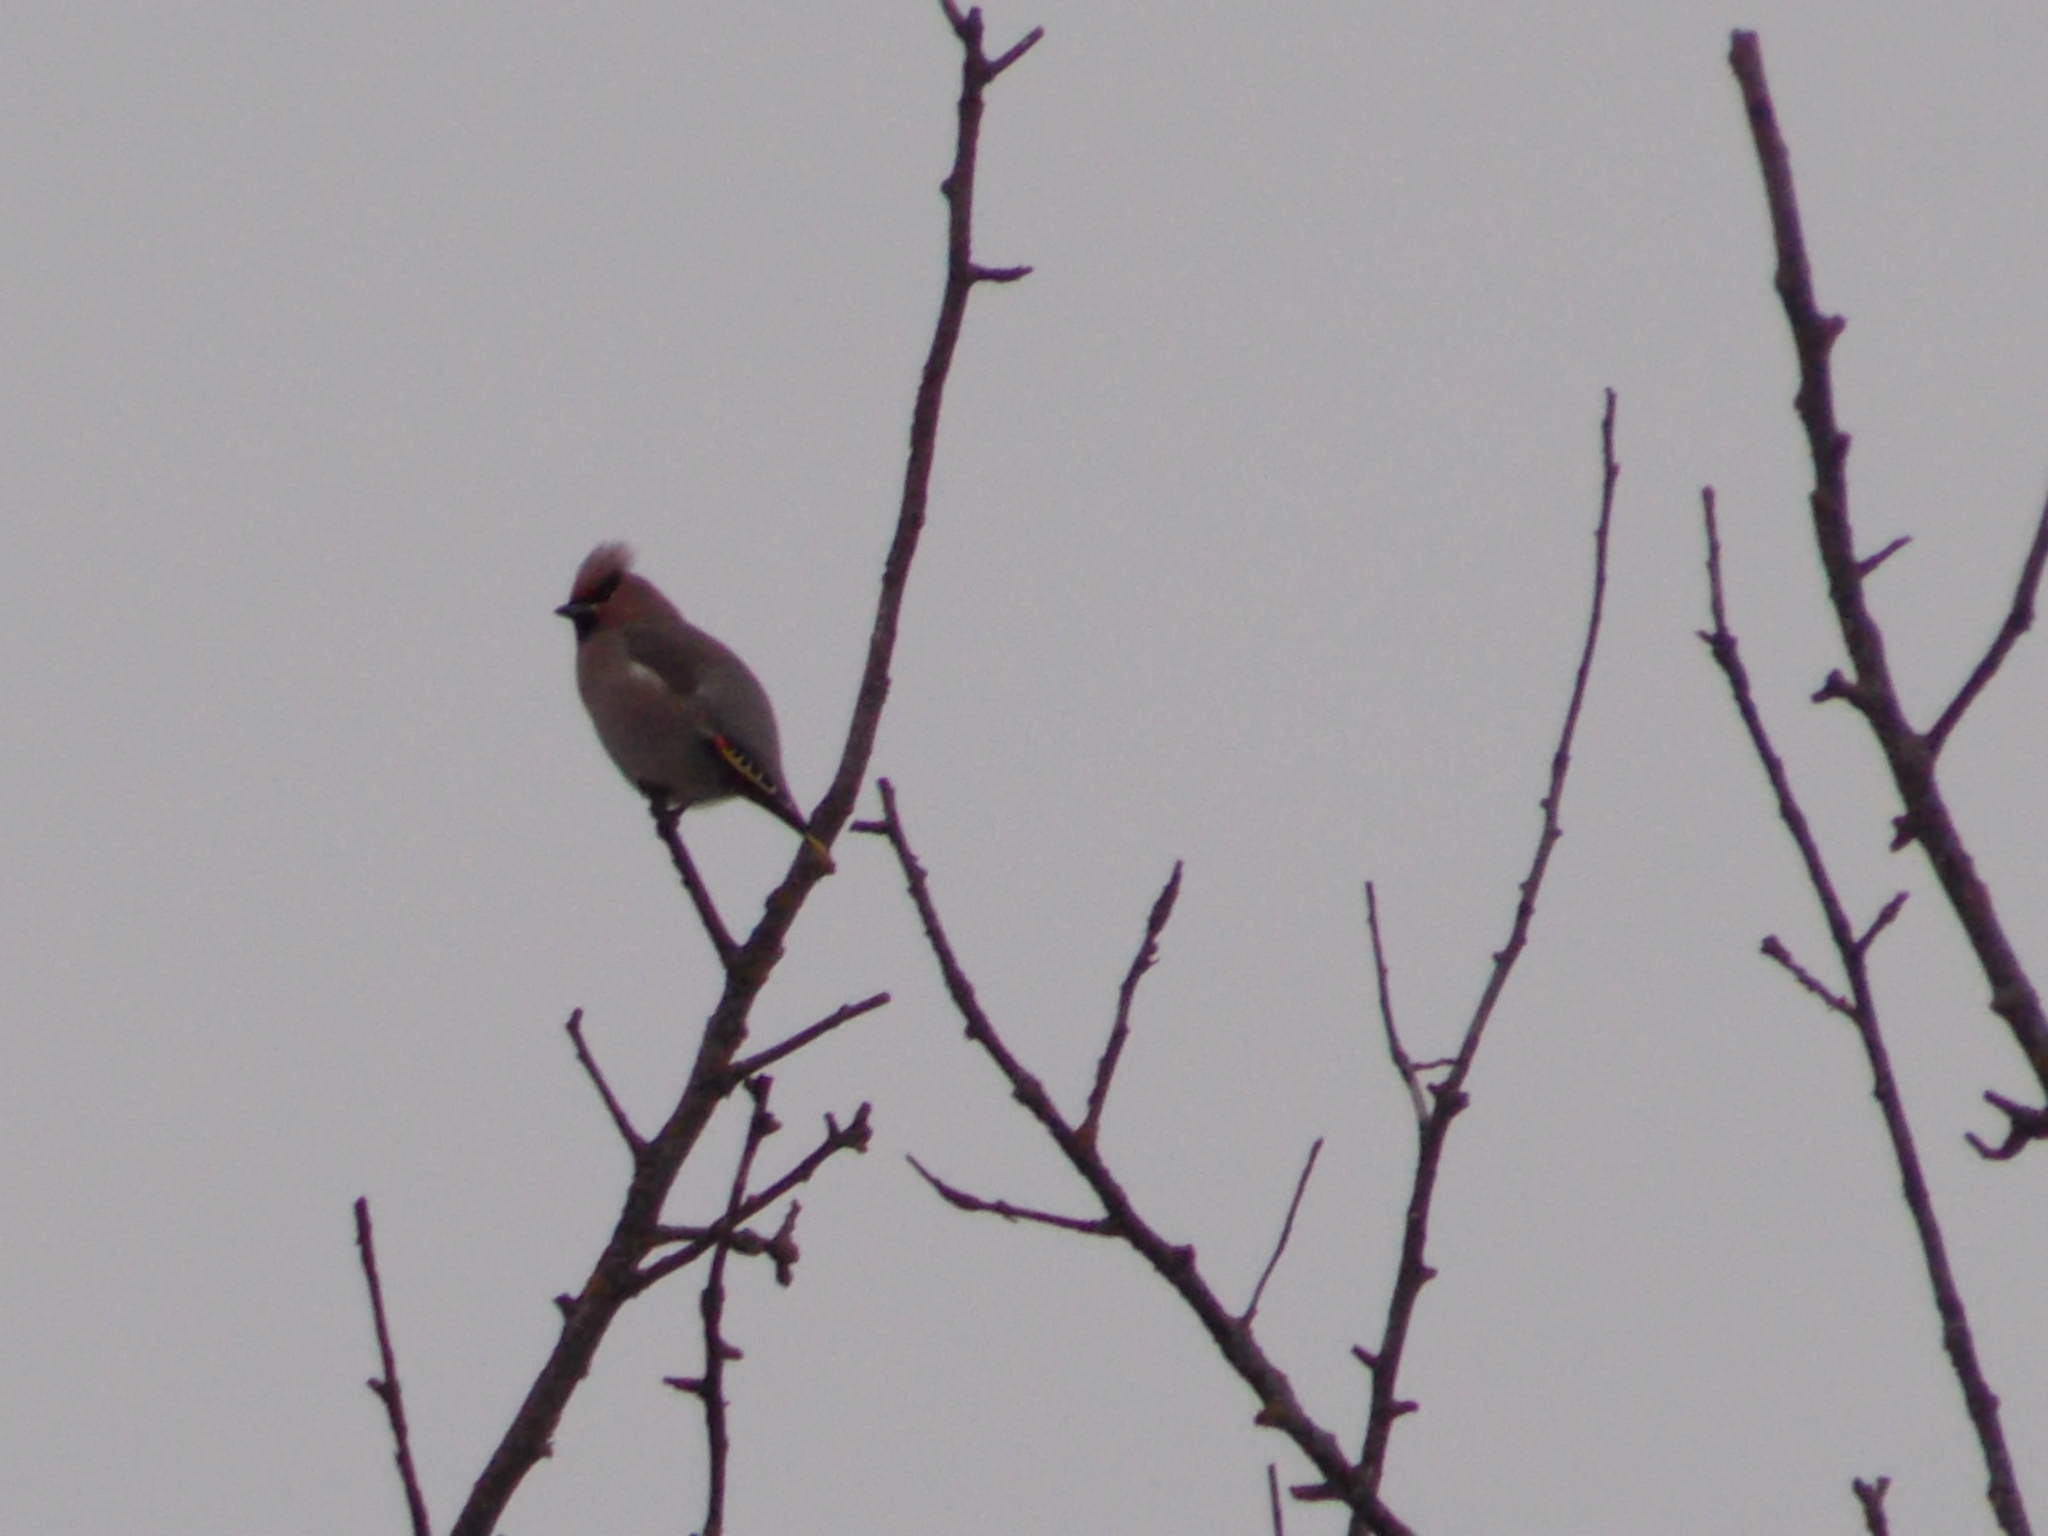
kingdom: Animalia
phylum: Chordata
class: Aves
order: Passeriformes
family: Bombycillidae
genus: Bombycilla
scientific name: Bombycilla garrulus
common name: Bohemian waxwing
